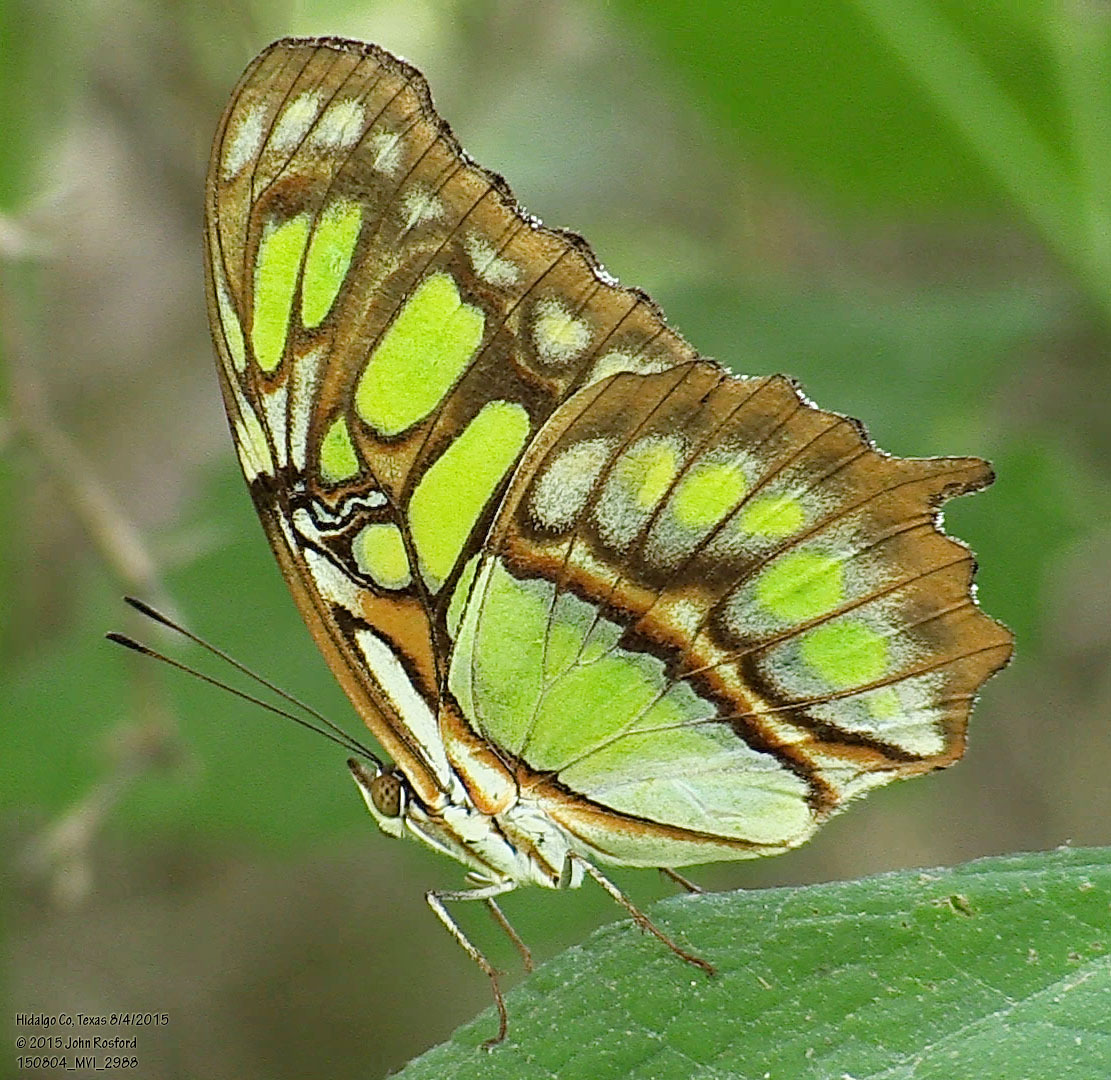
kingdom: Animalia
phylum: Arthropoda
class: Insecta
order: Lepidoptera
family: Nymphalidae
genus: Siproeta
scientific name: Siproeta stelenes
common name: Malachite
